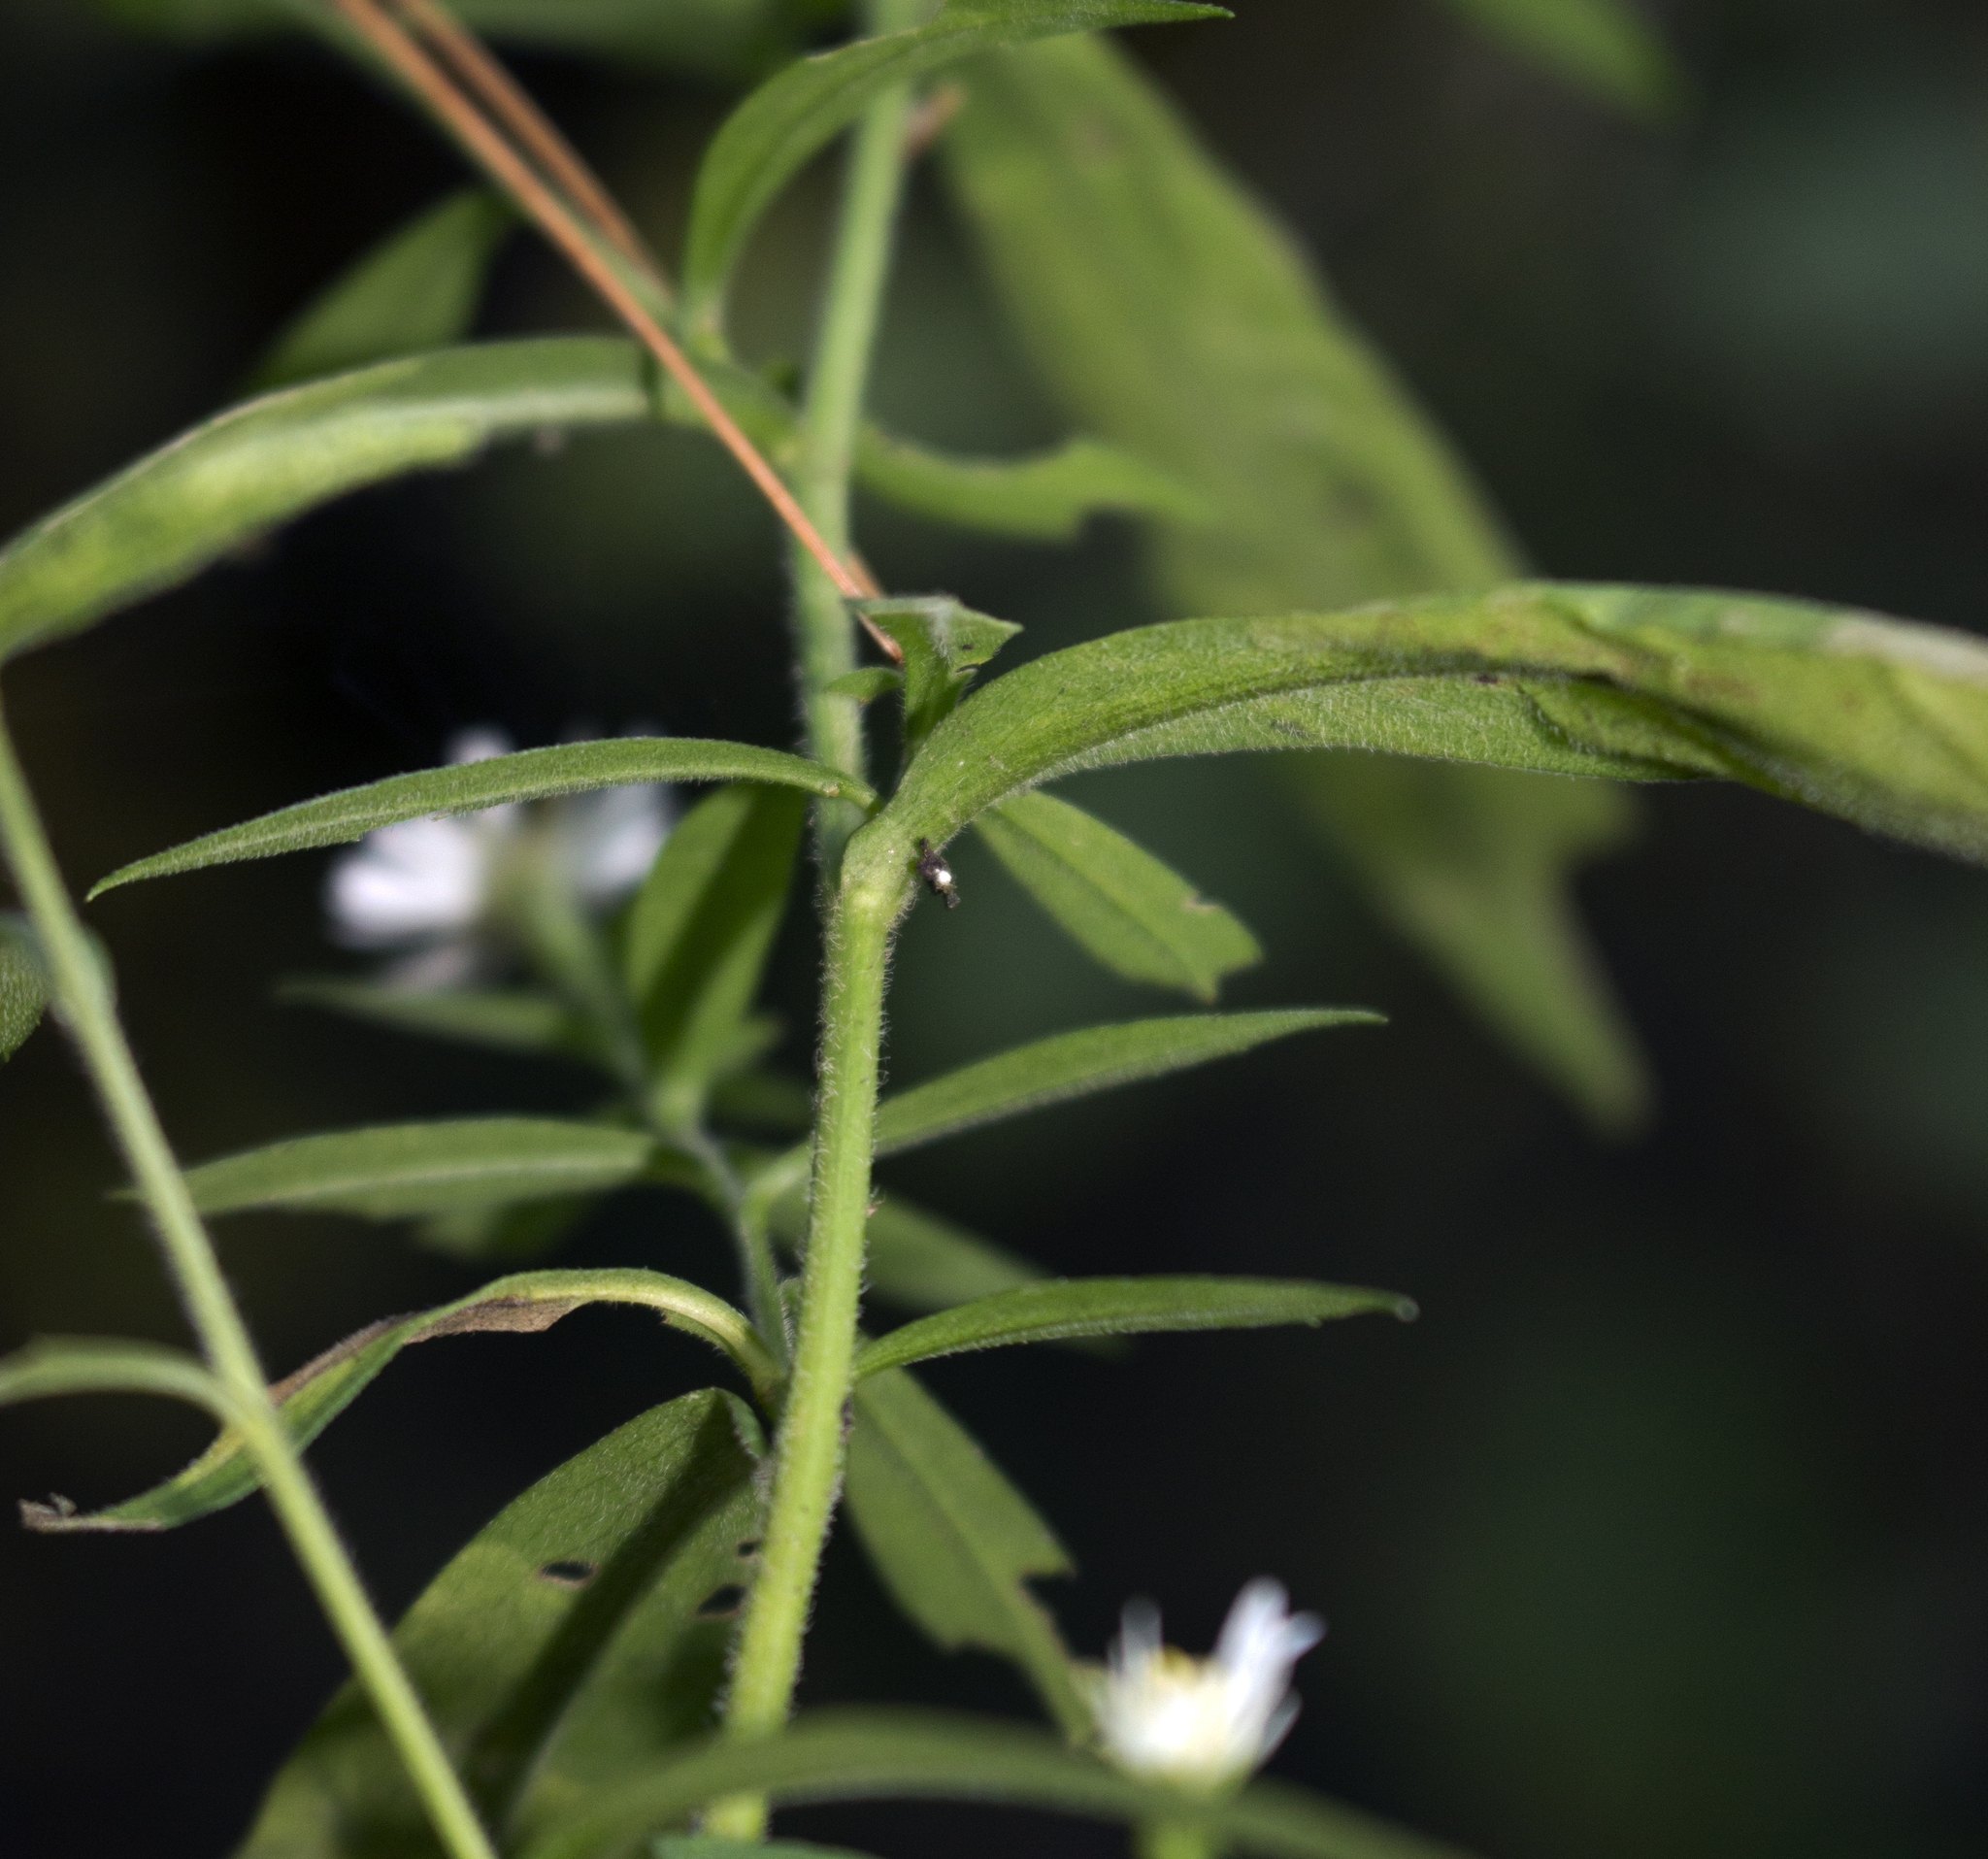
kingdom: Plantae
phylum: Tracheophyta
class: Magnoliopsida
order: Asterales
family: Asteraceae
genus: Symphyotrichum
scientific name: Symphyotrichum ontarionis
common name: Bottomland aster
